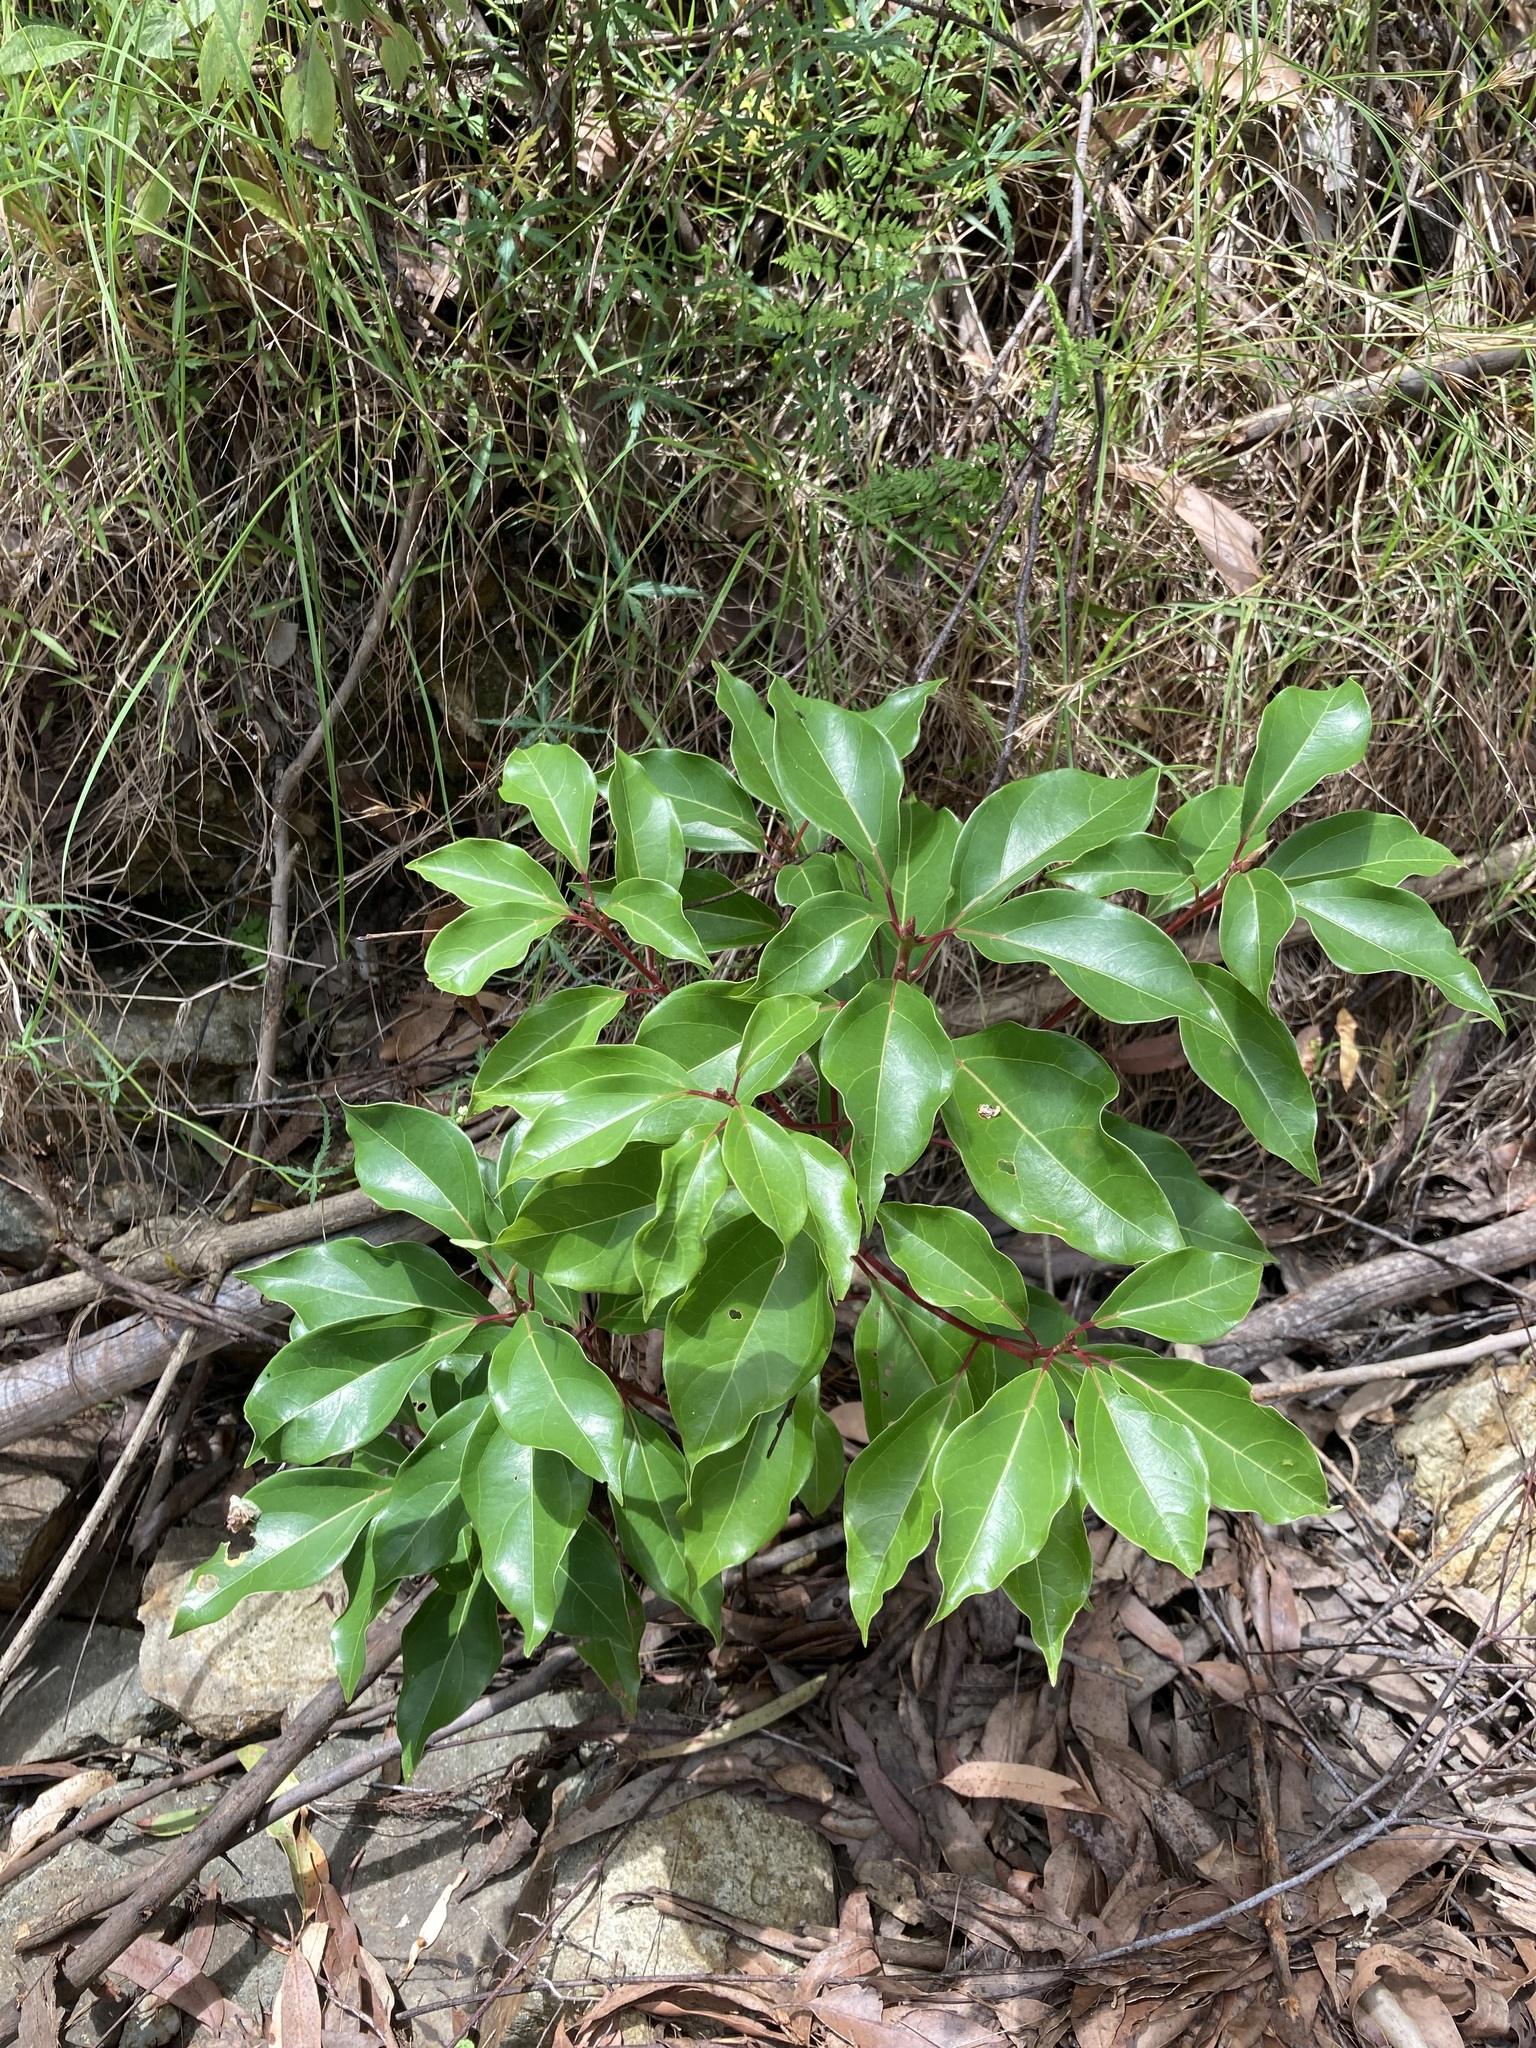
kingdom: Plantae
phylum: Tracheophyta
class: Magnoliopsida
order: Laurales
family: Lauraceae
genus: Cinnamomum
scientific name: Cinnamomum camphora
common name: Camphortree
